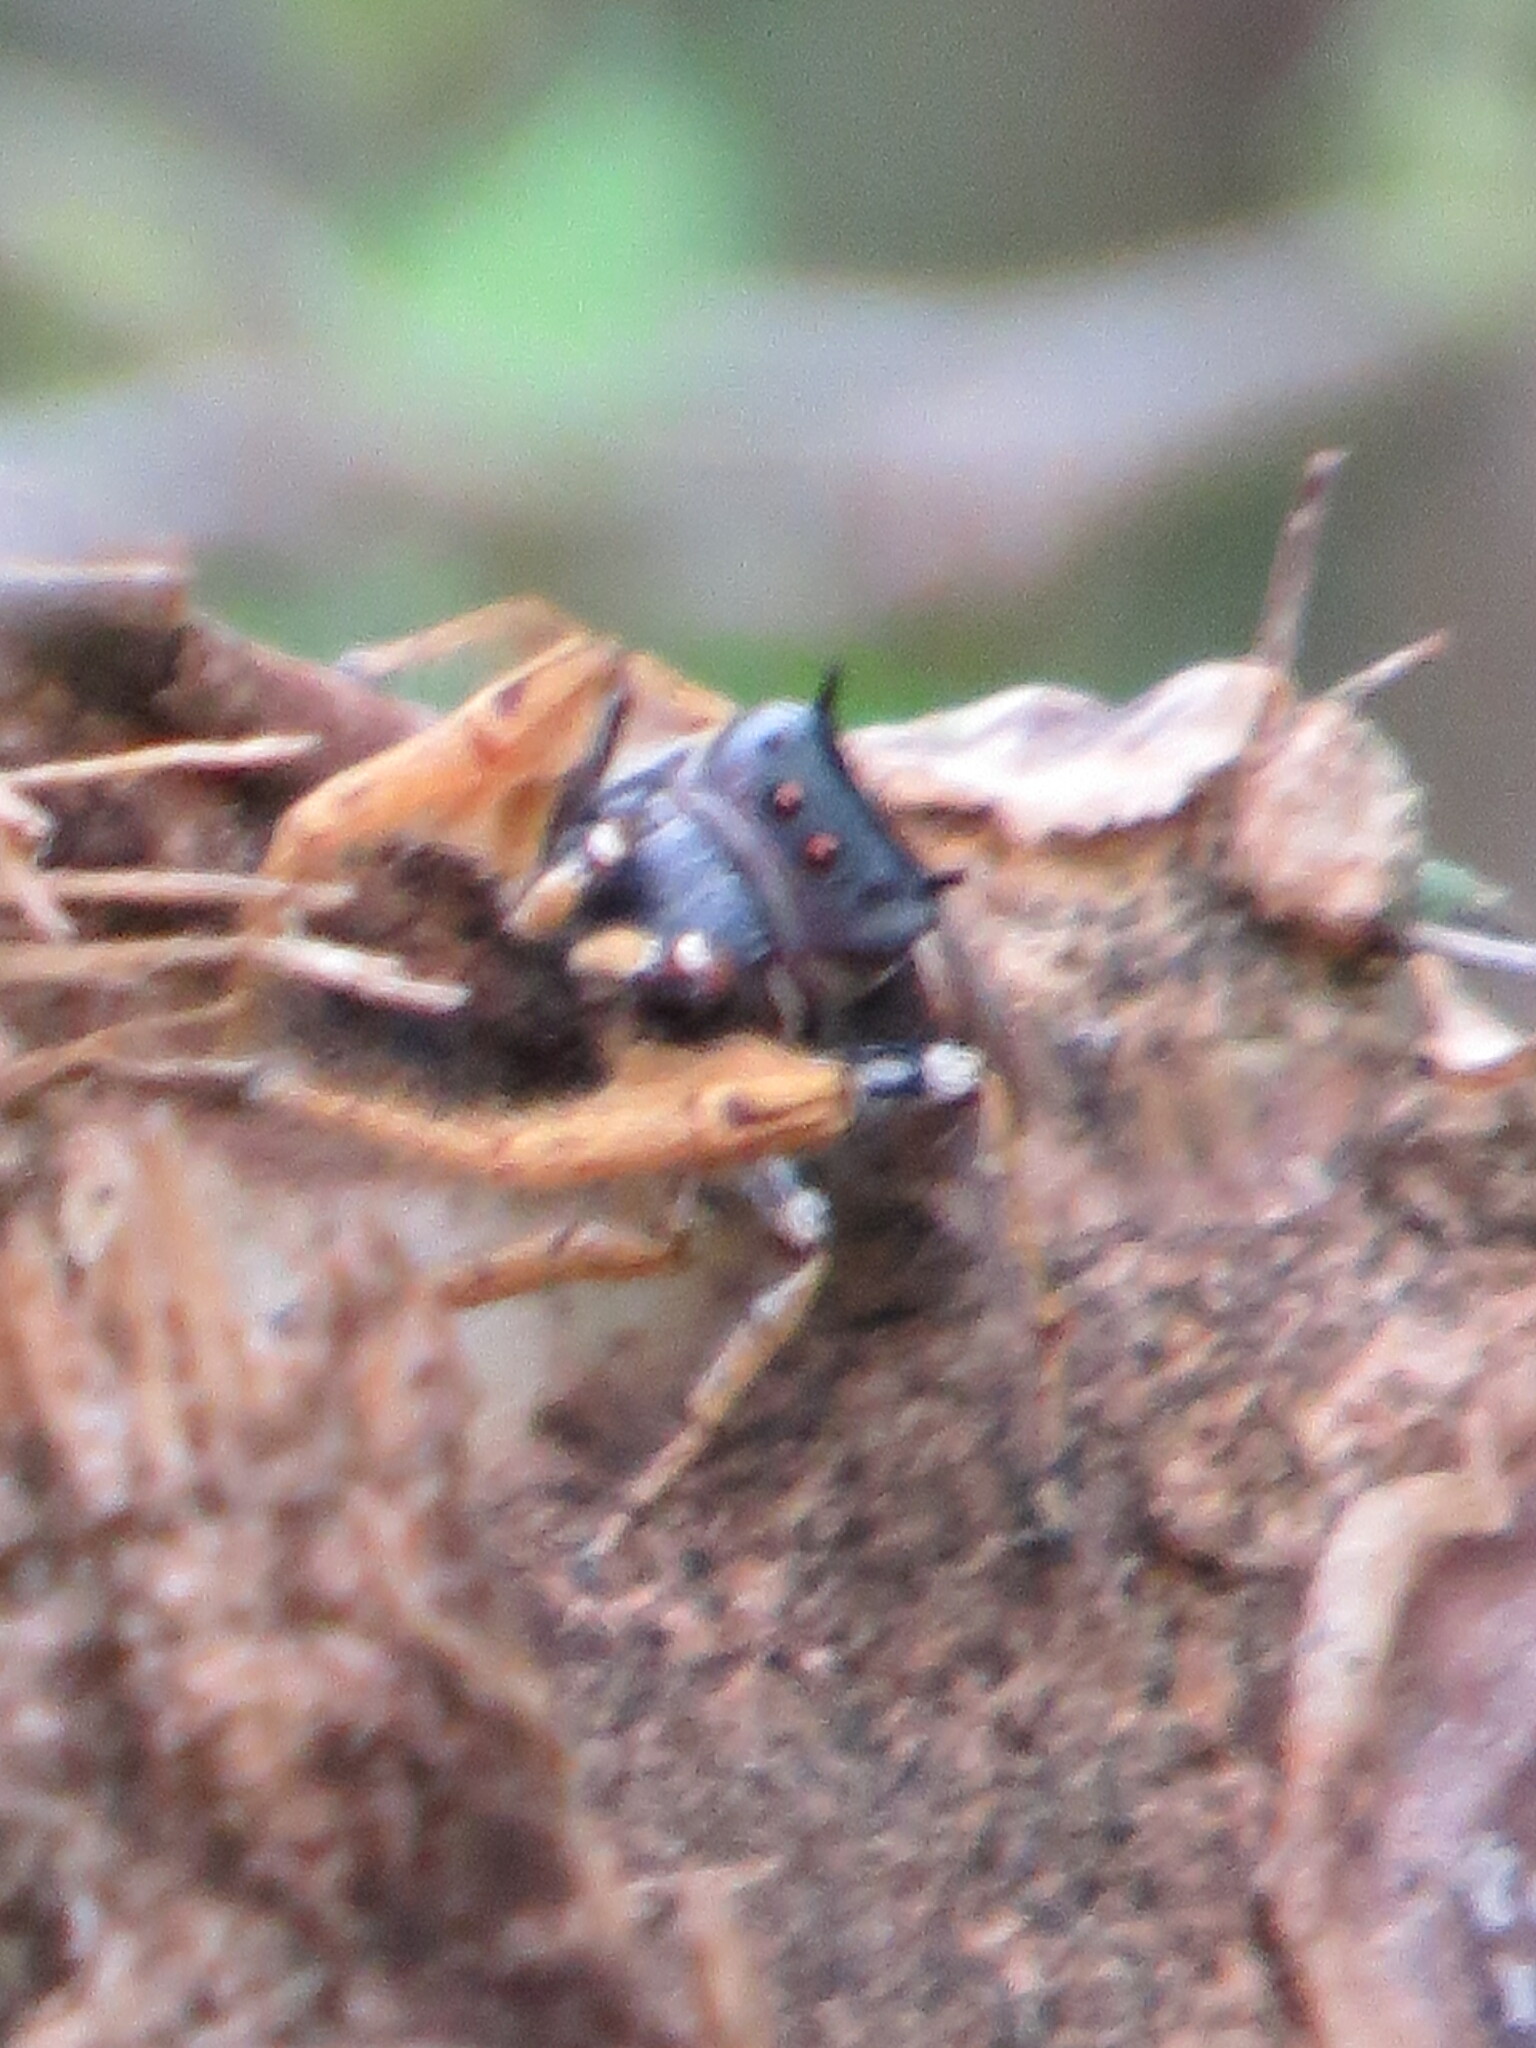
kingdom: Animalia
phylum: Arthropoda
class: Arachnida
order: Araneae
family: Salticidae
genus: Phidippus
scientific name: Phidippus arizonensis
